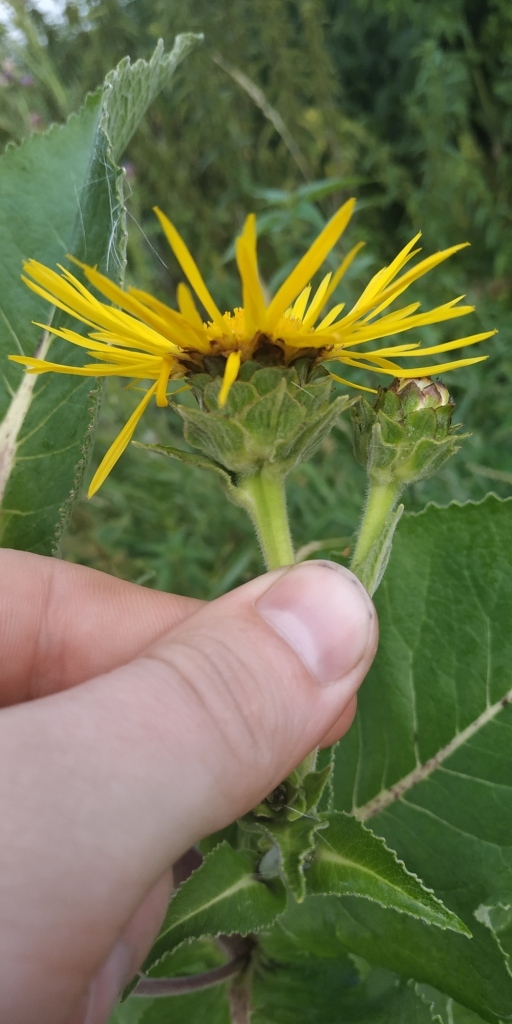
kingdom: Plantae
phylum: Tracheophyta
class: Magnoliopsida
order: Asterales
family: Asteraceae
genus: Inula
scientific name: Inula helenium
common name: Elecampane
